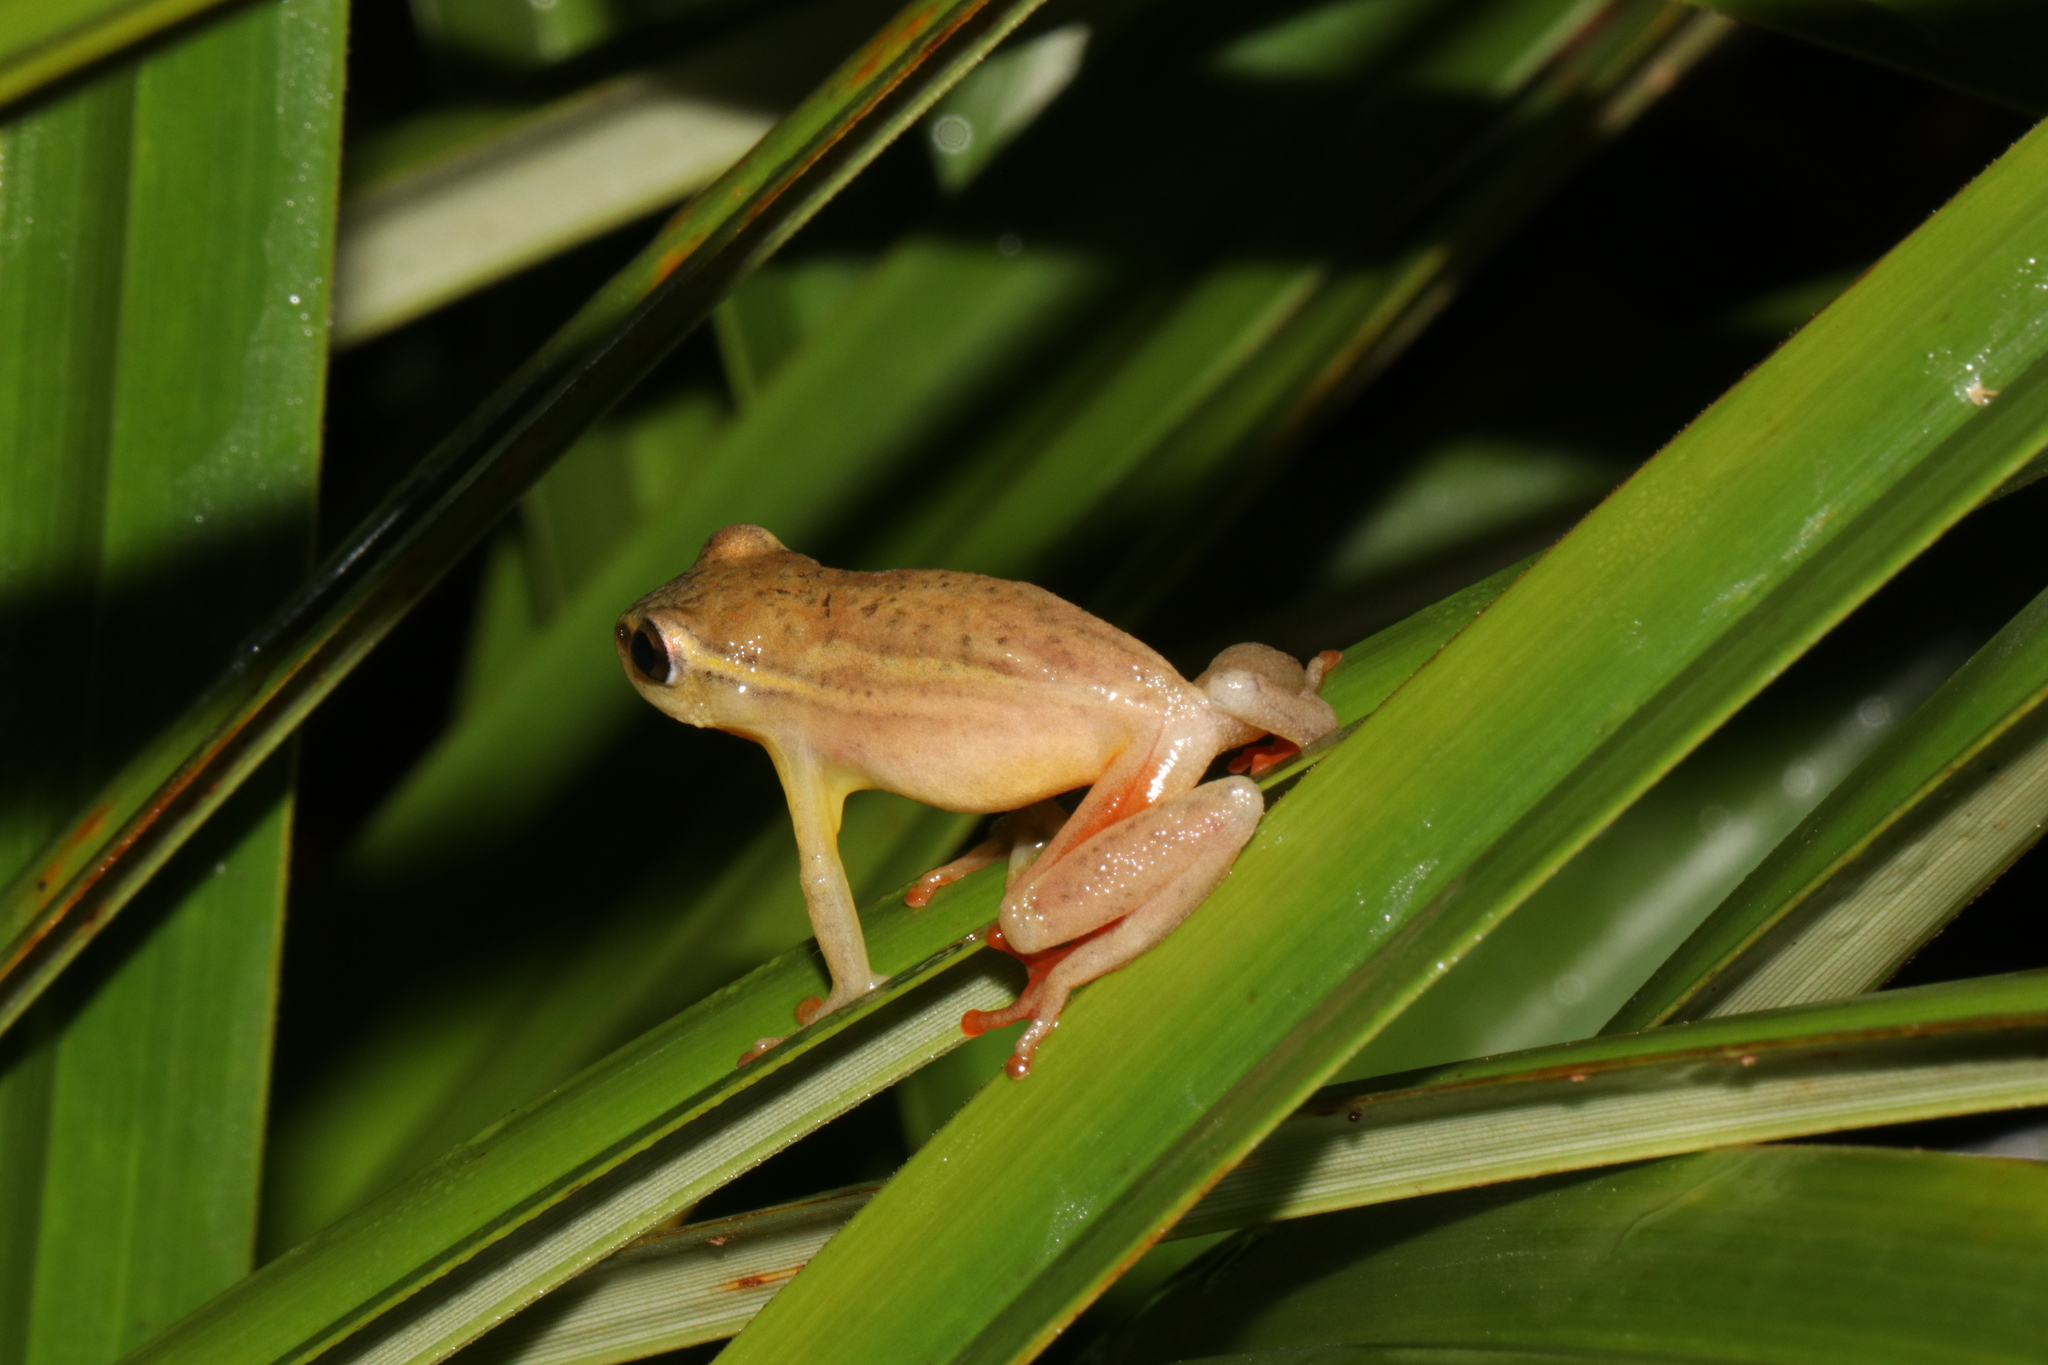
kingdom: Animalia
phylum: Chordata
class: Amphibia
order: Anura
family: Hyperoliidae
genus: Hyperolius
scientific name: Hyperolius substriatus
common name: Spotted reed frog
